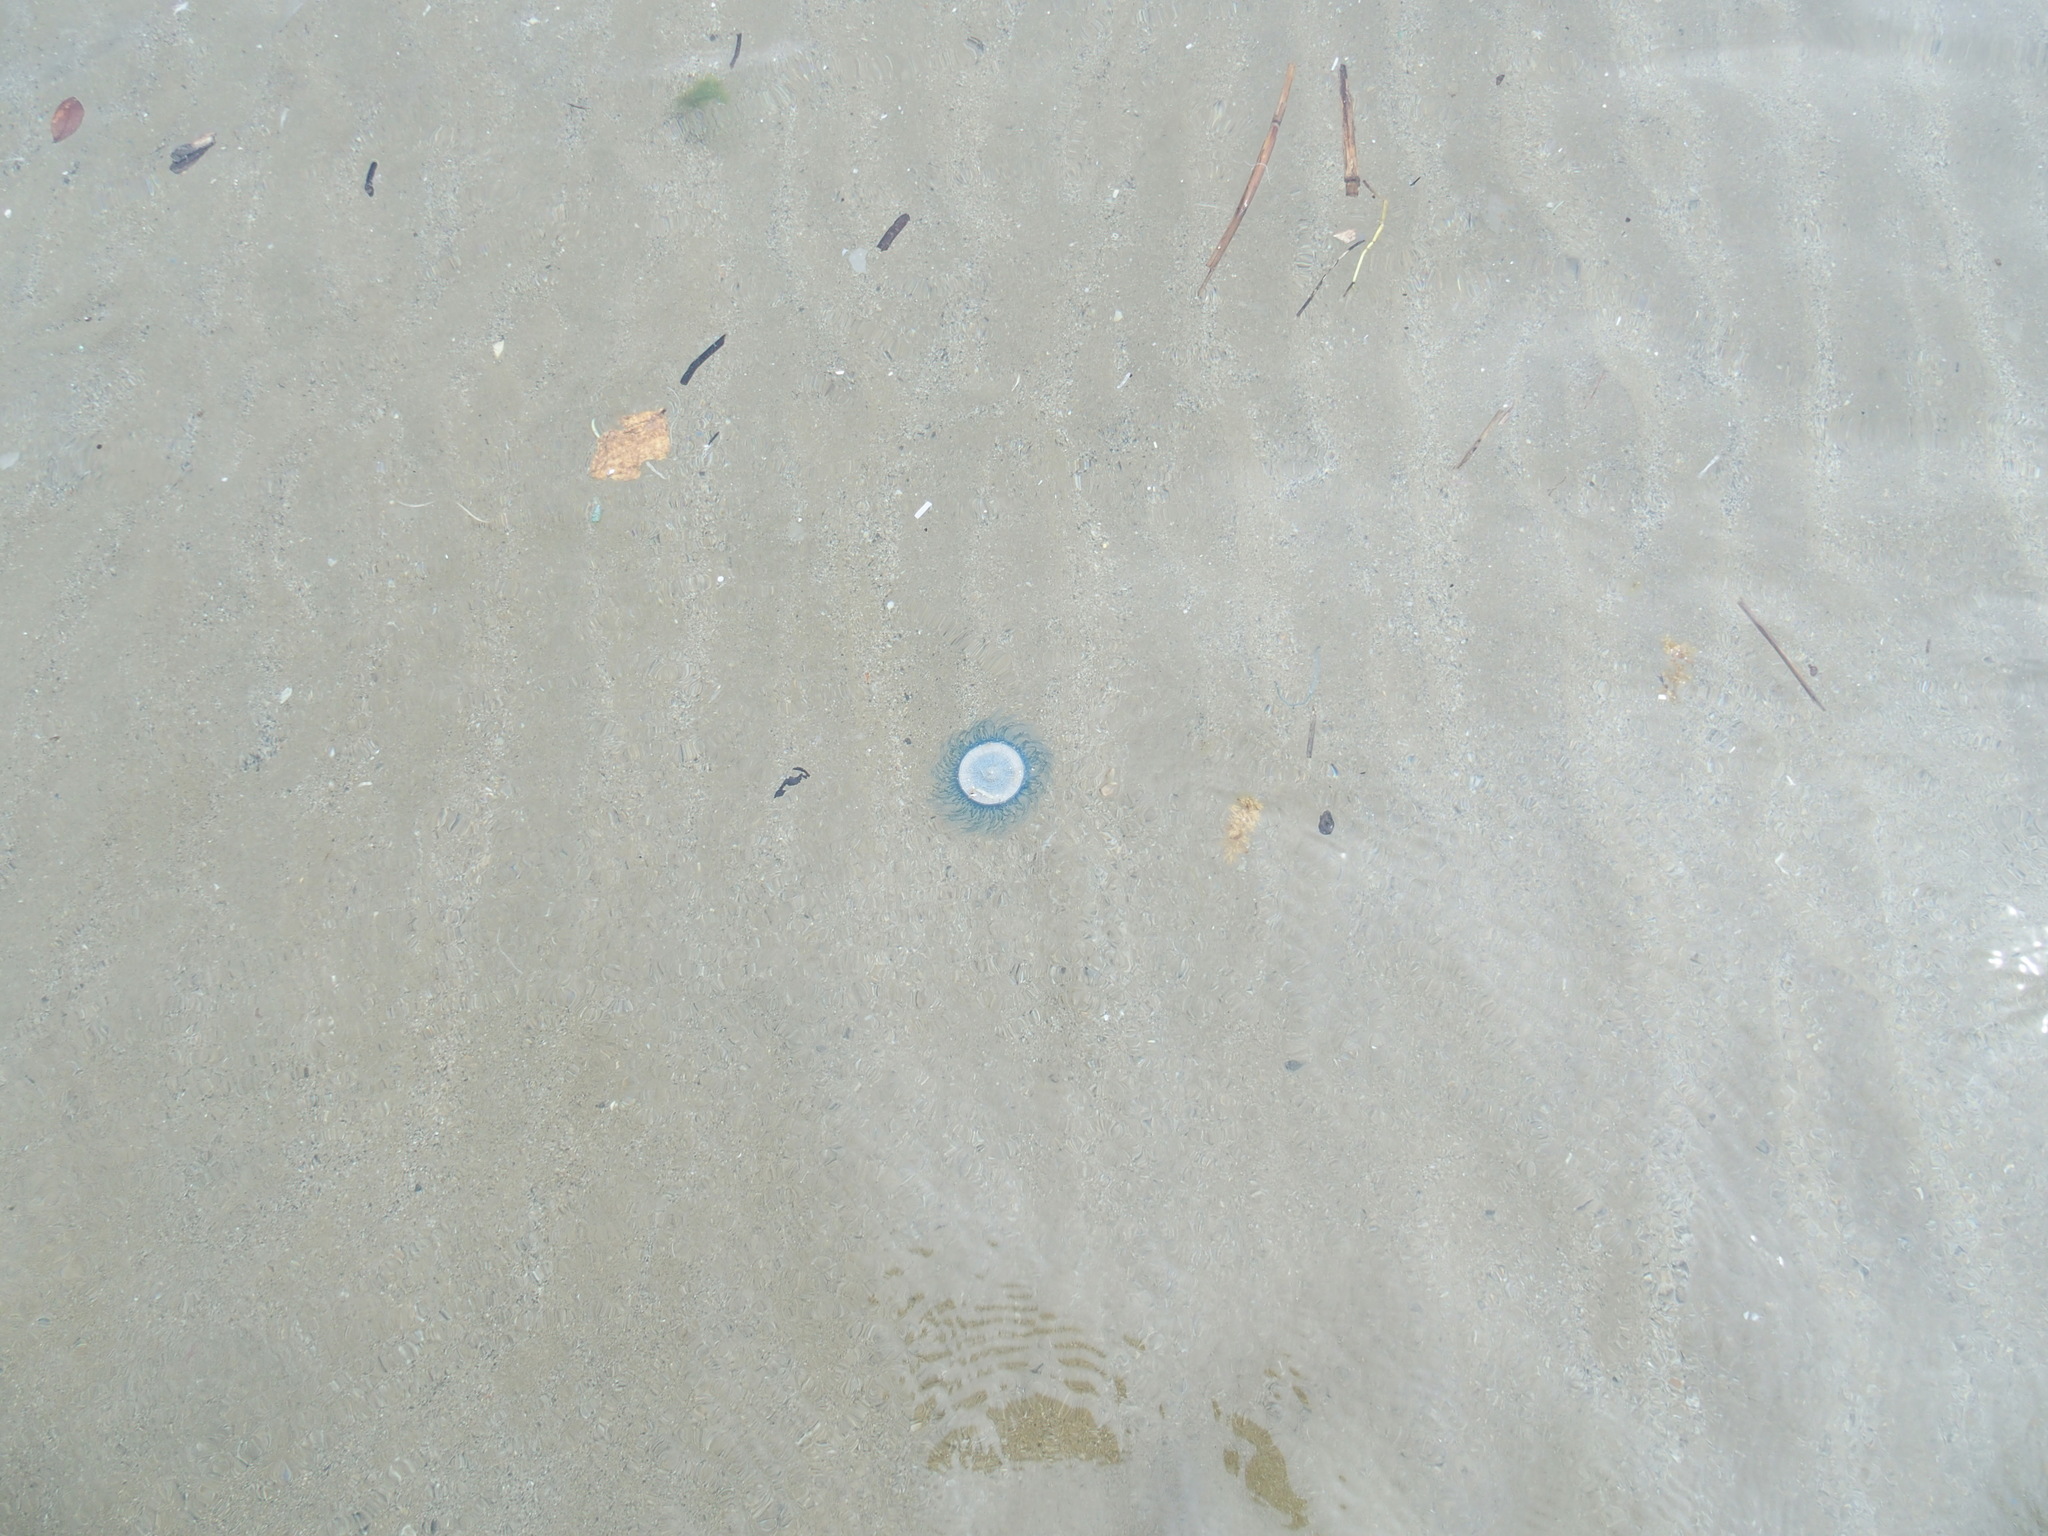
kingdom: Animalia
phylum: Cnidaria
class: Hydrozoa
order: Anthoathecata
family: Porpitidae
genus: Porpita
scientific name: Porpita porpita
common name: Blue button
